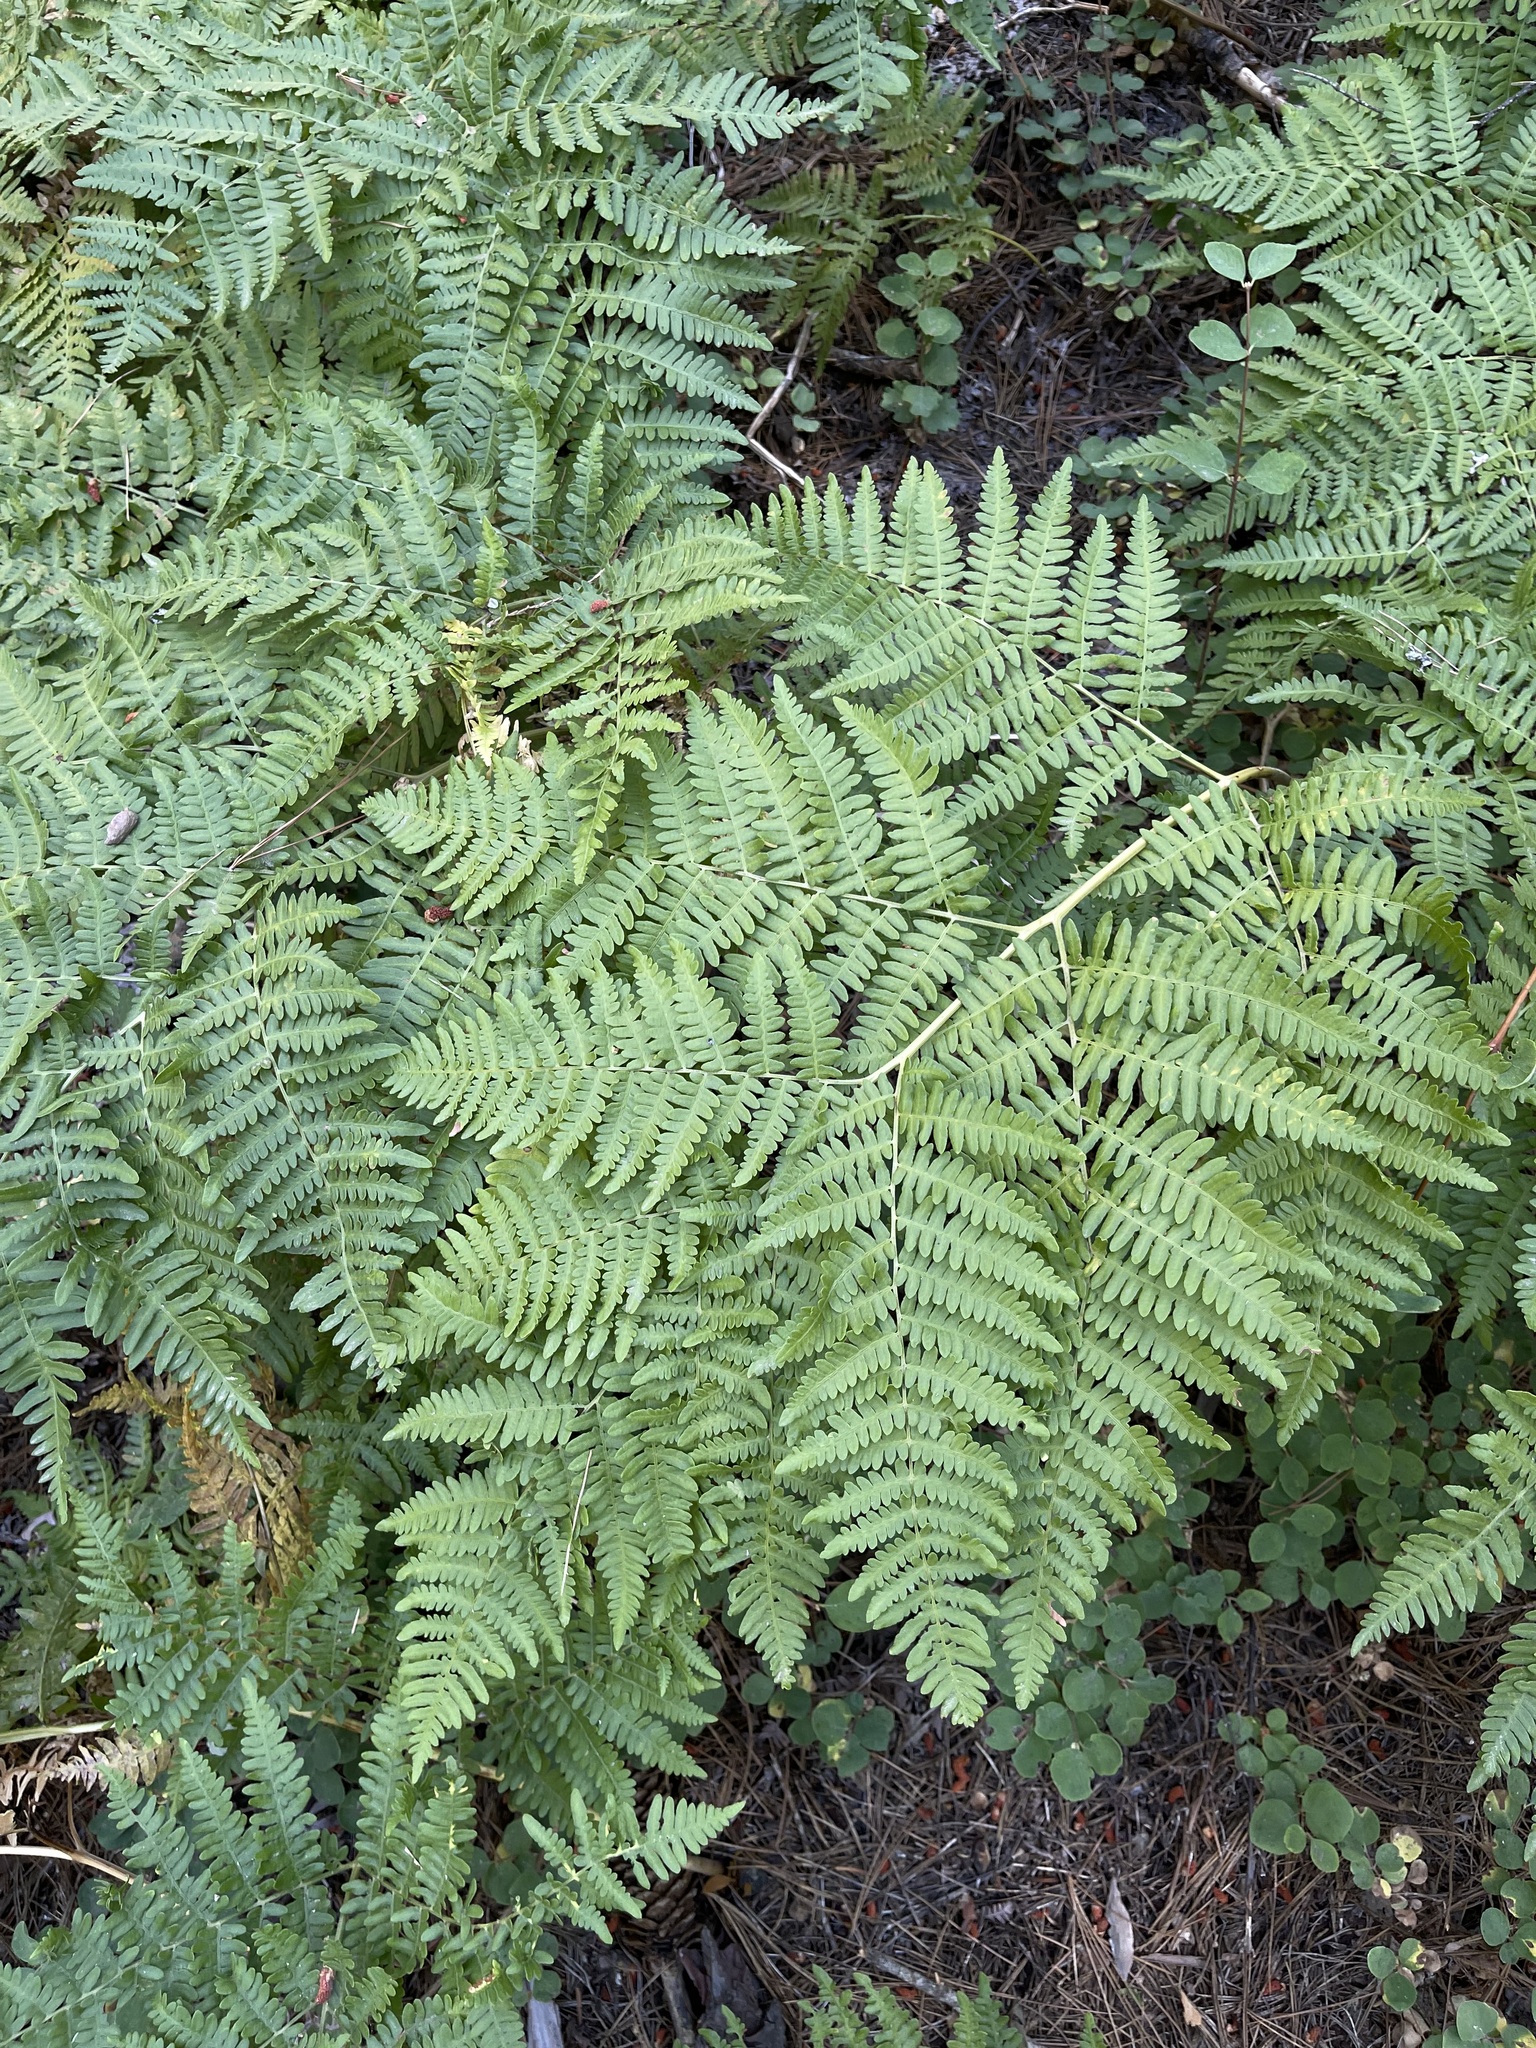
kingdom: Plantae
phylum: Tracheophyta
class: Polypodiopsida
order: Polypodiales
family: Dennstaedtiaceae
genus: Pteridium
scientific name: Pteridium aquilinum
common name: Bracken
